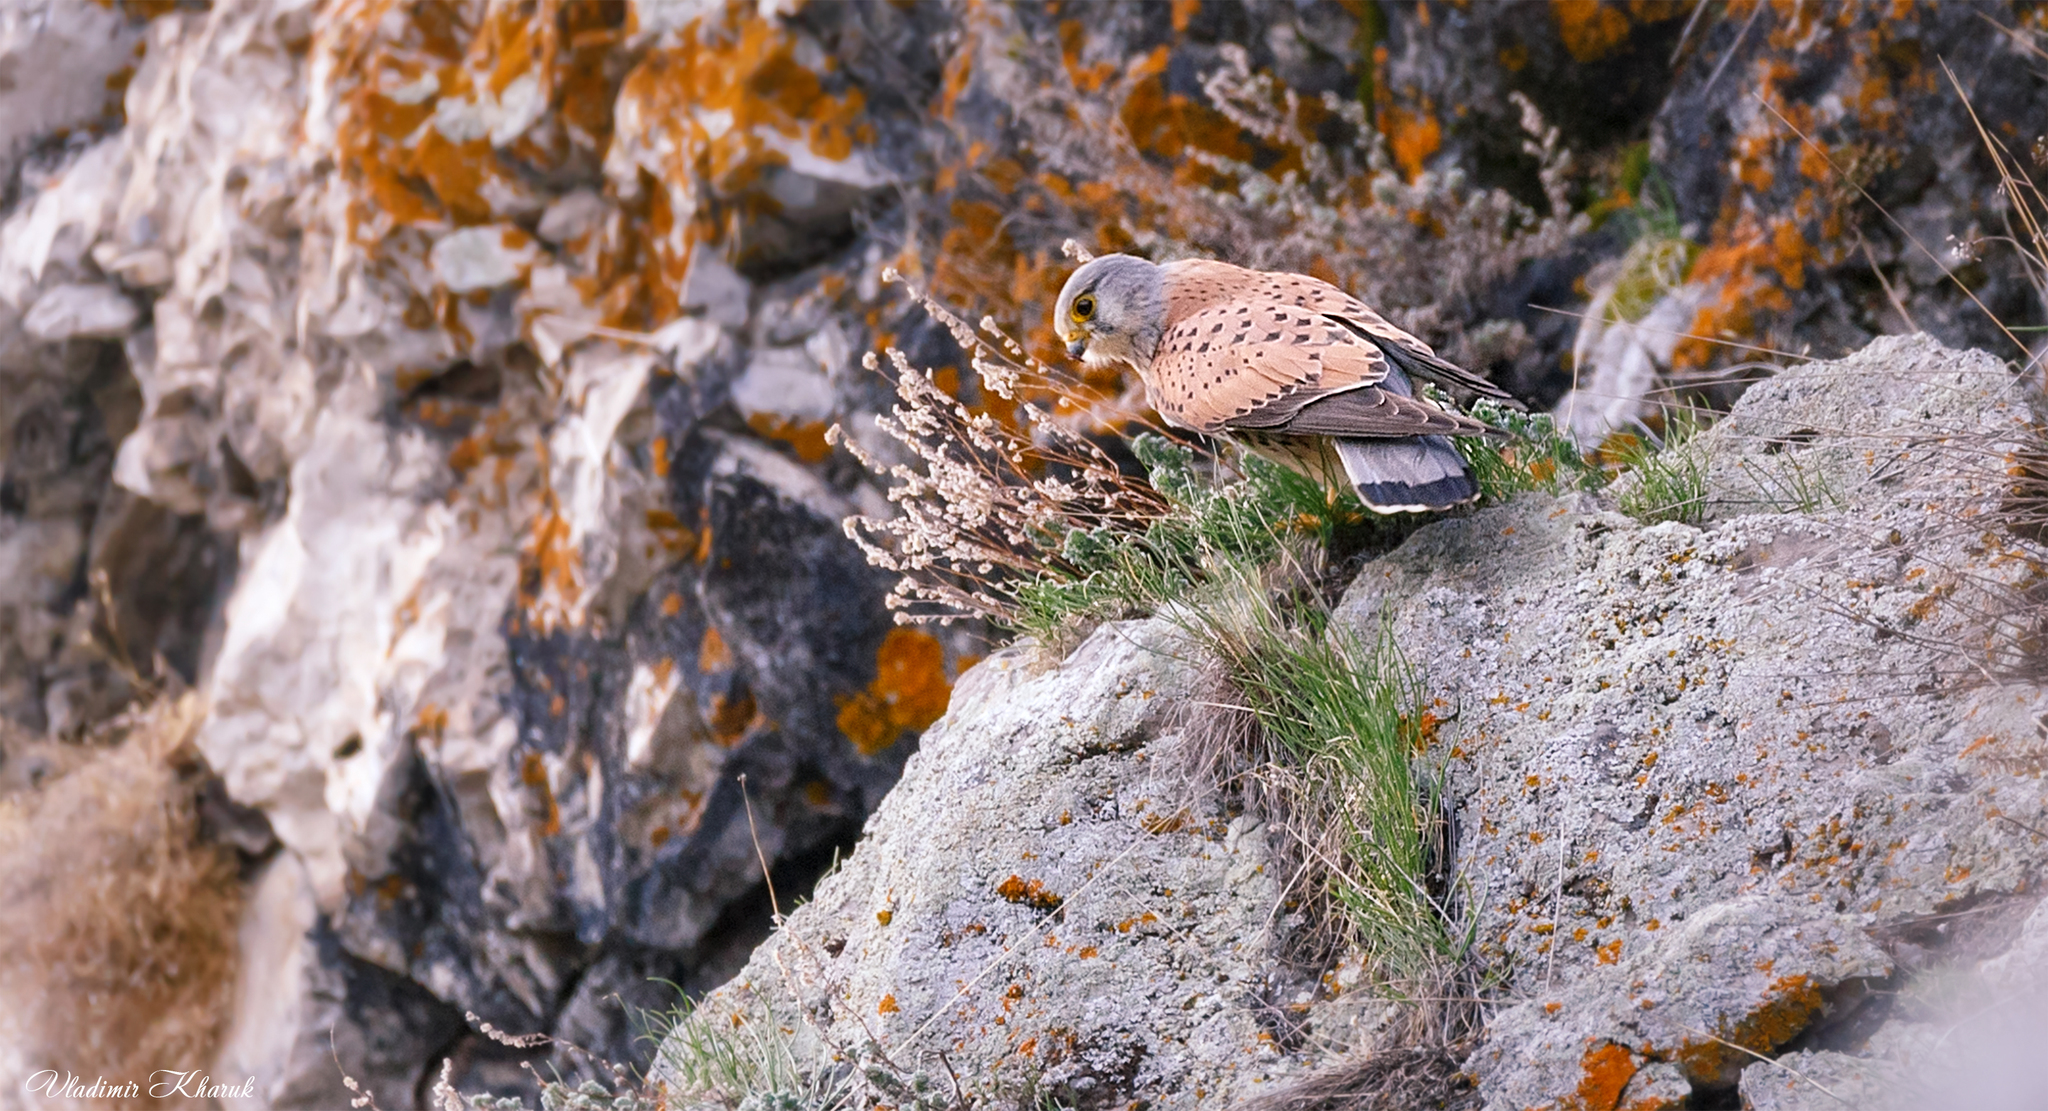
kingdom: Animalia
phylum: Chordata
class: Aves
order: Falconiformes
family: Falconidae
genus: Falco
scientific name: Falco tinnunculus
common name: Common kestrel
